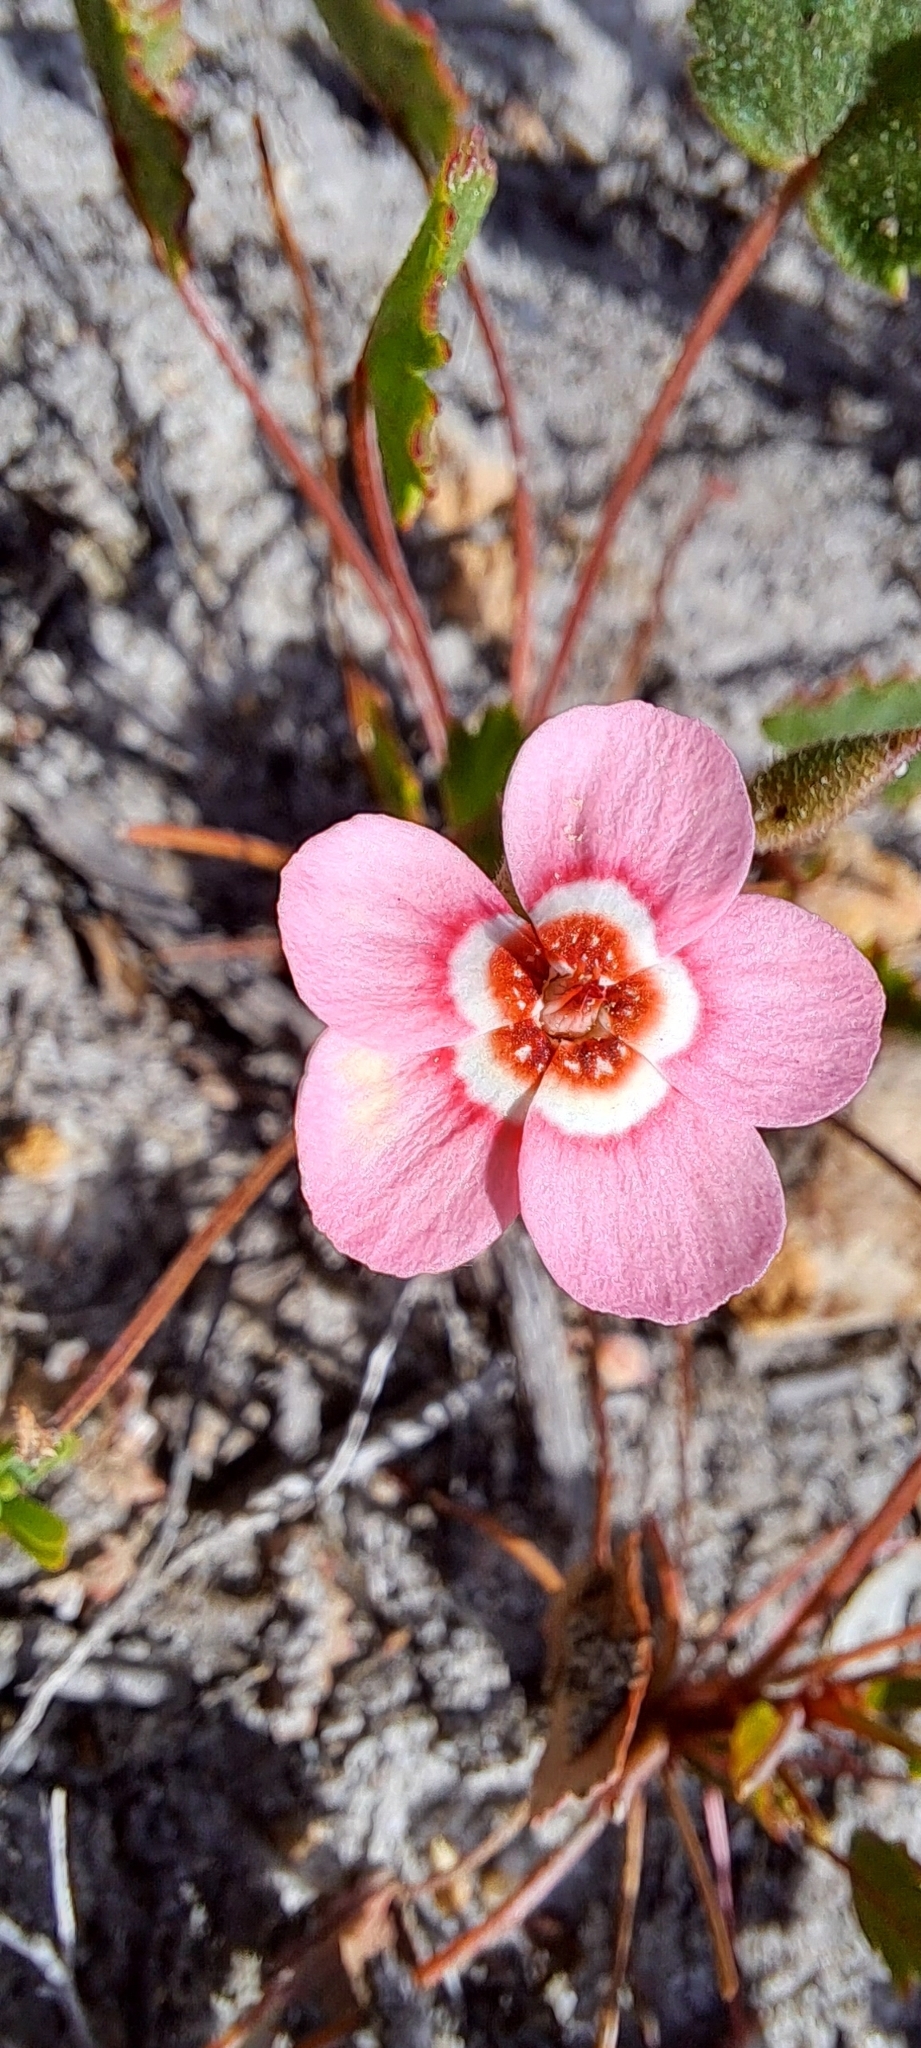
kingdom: Plantae
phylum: Tracheophyta
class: Magnoliopsida
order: Geraniales
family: Geraniaceae
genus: Pelargonium
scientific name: Pelargonium incarnatum
